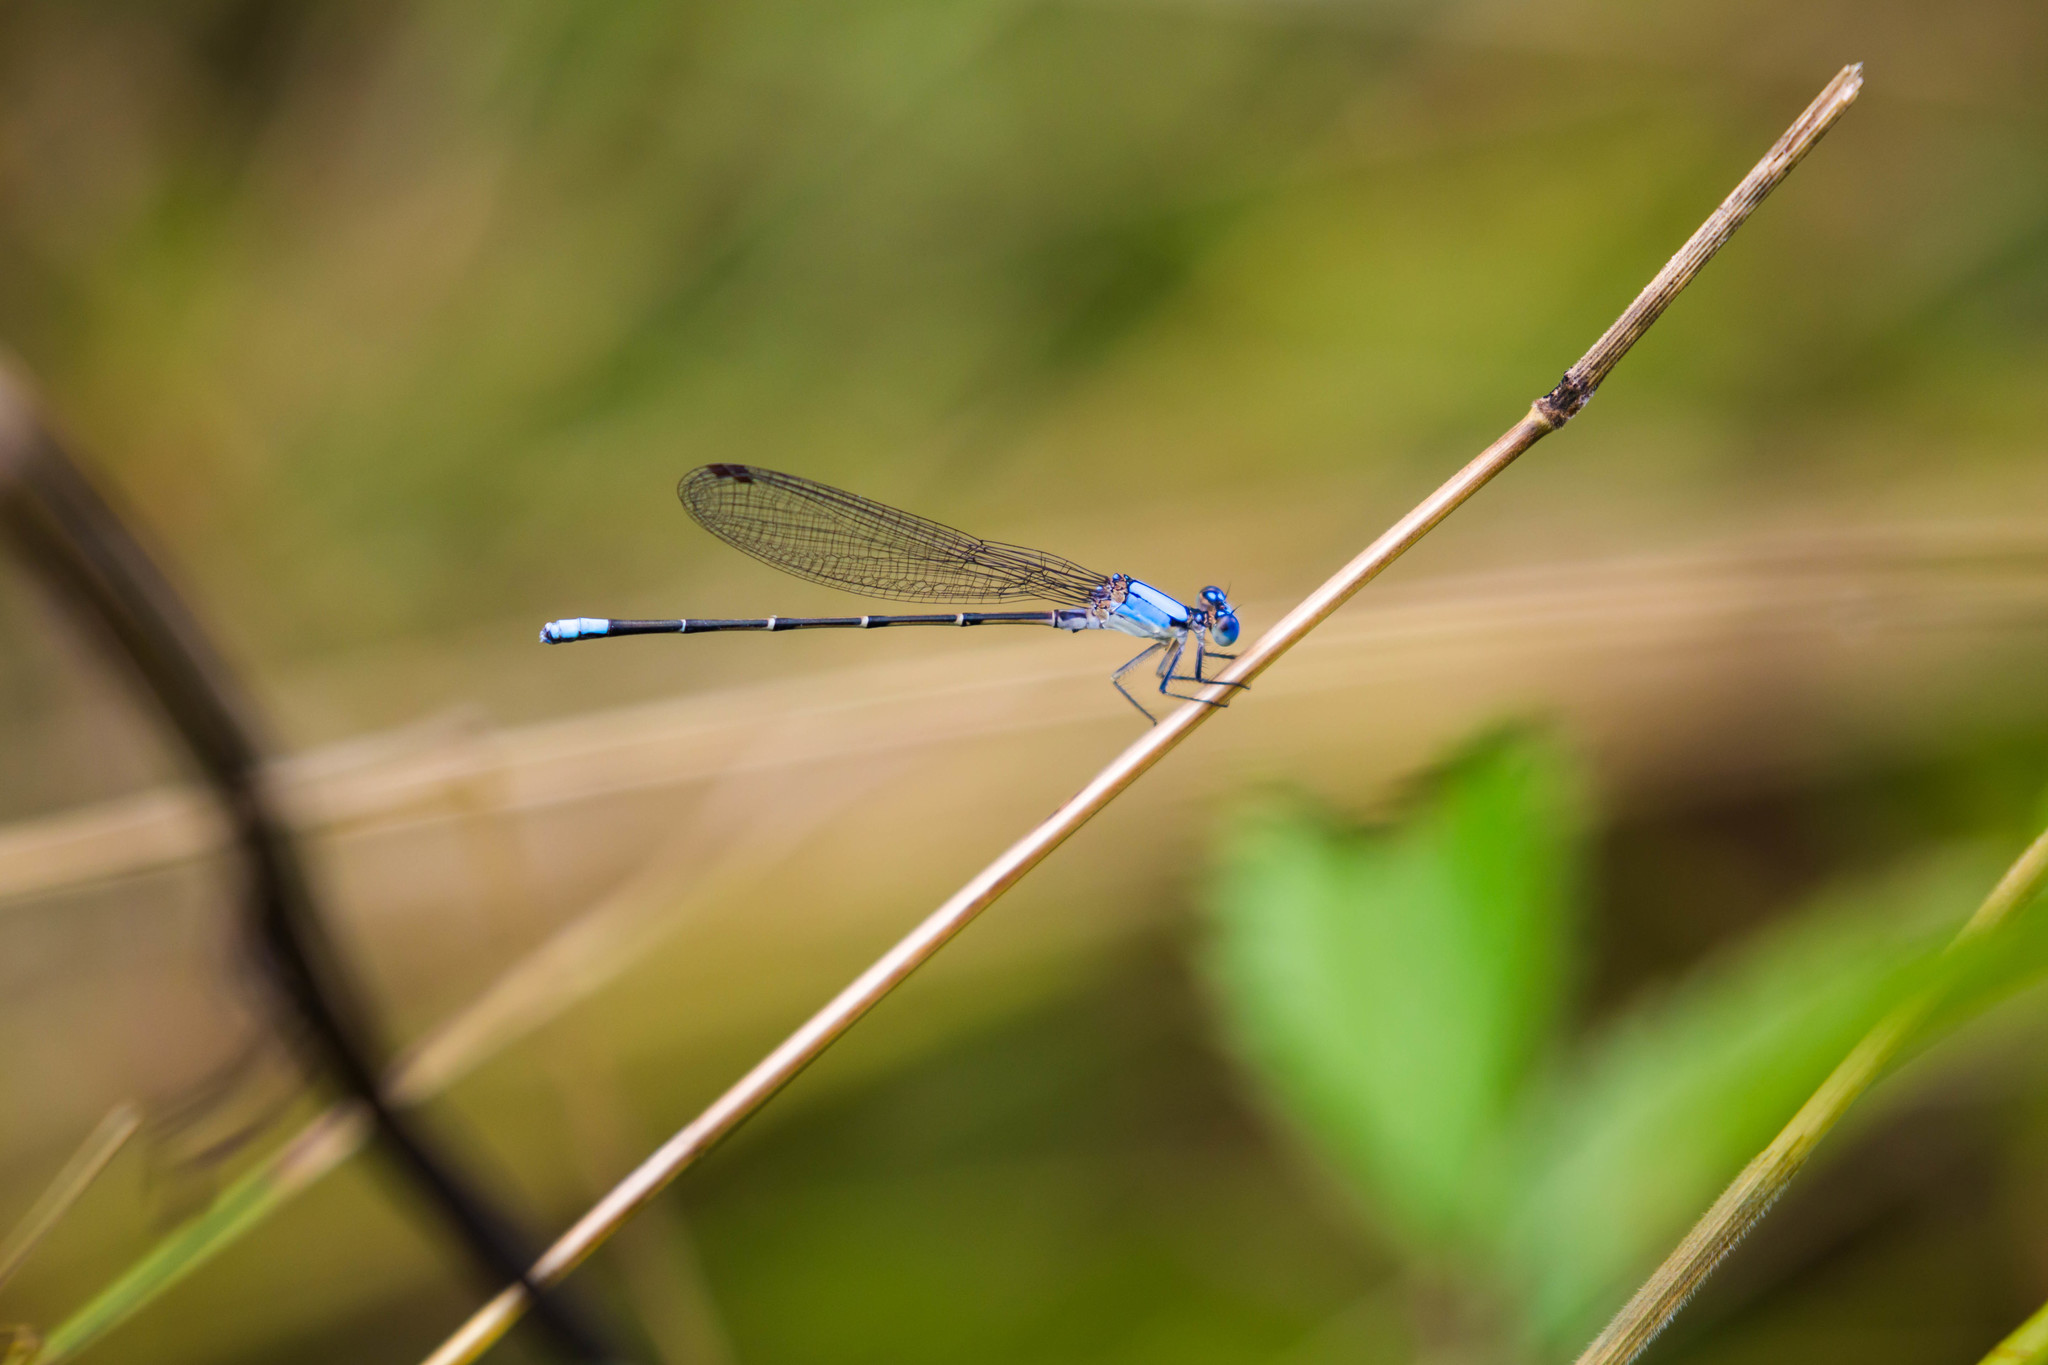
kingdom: Animalia
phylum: Arthropoda
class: Insecta
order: Odonata
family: Coenagrionidae
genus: Argia
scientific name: Argia apicalis
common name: Blue-fronted dancer
